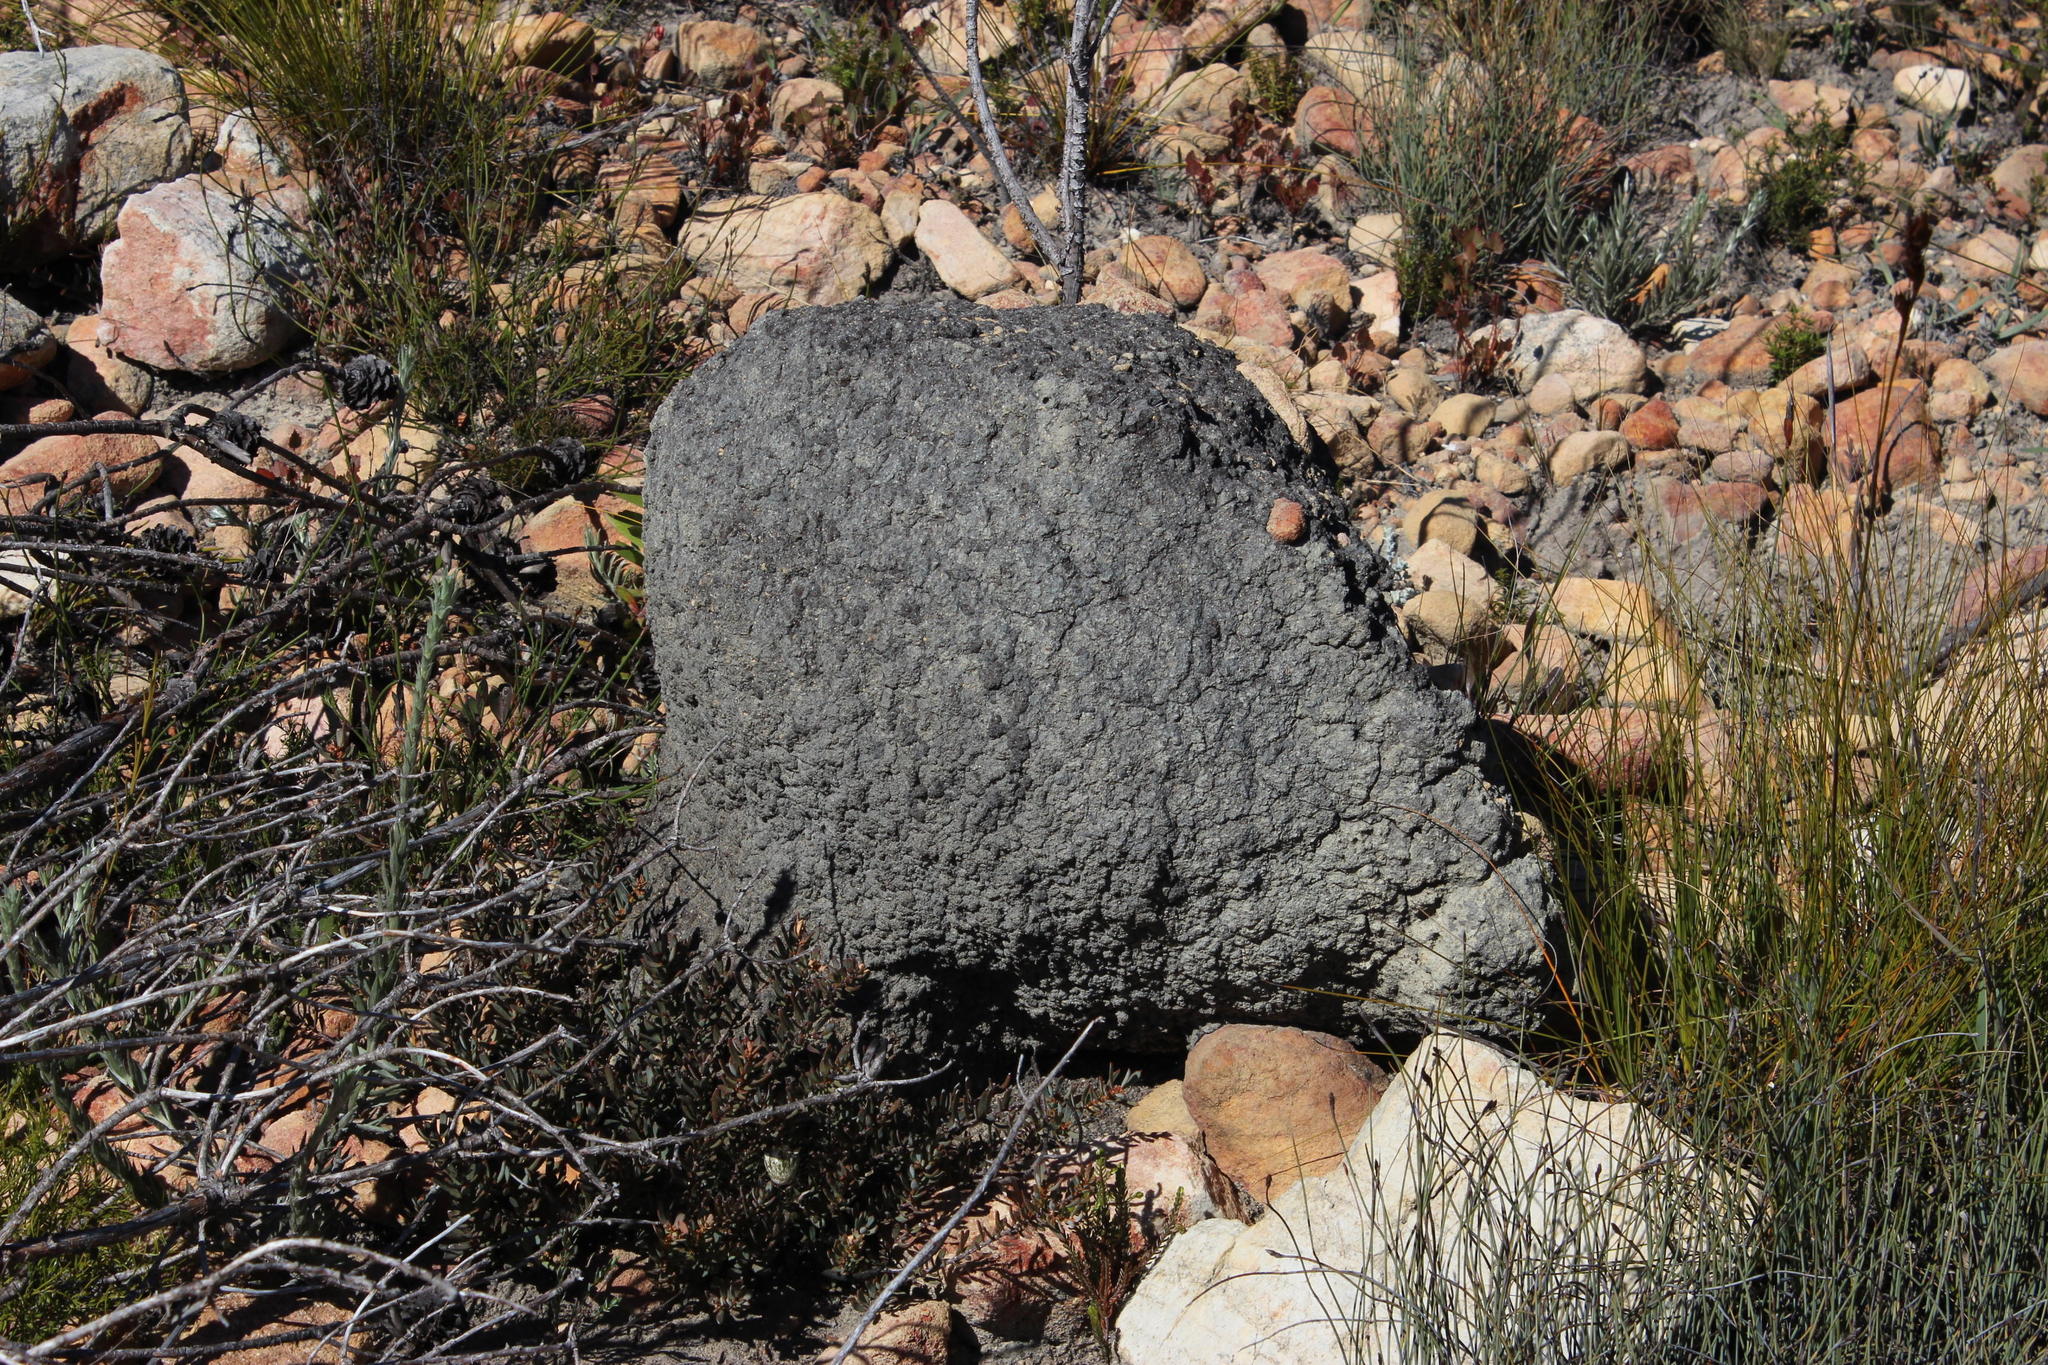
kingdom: Animalia
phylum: Arthropoda
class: Insecta
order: Blattodea
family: Termitidae
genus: Amitermes
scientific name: Amitermes hastatus
